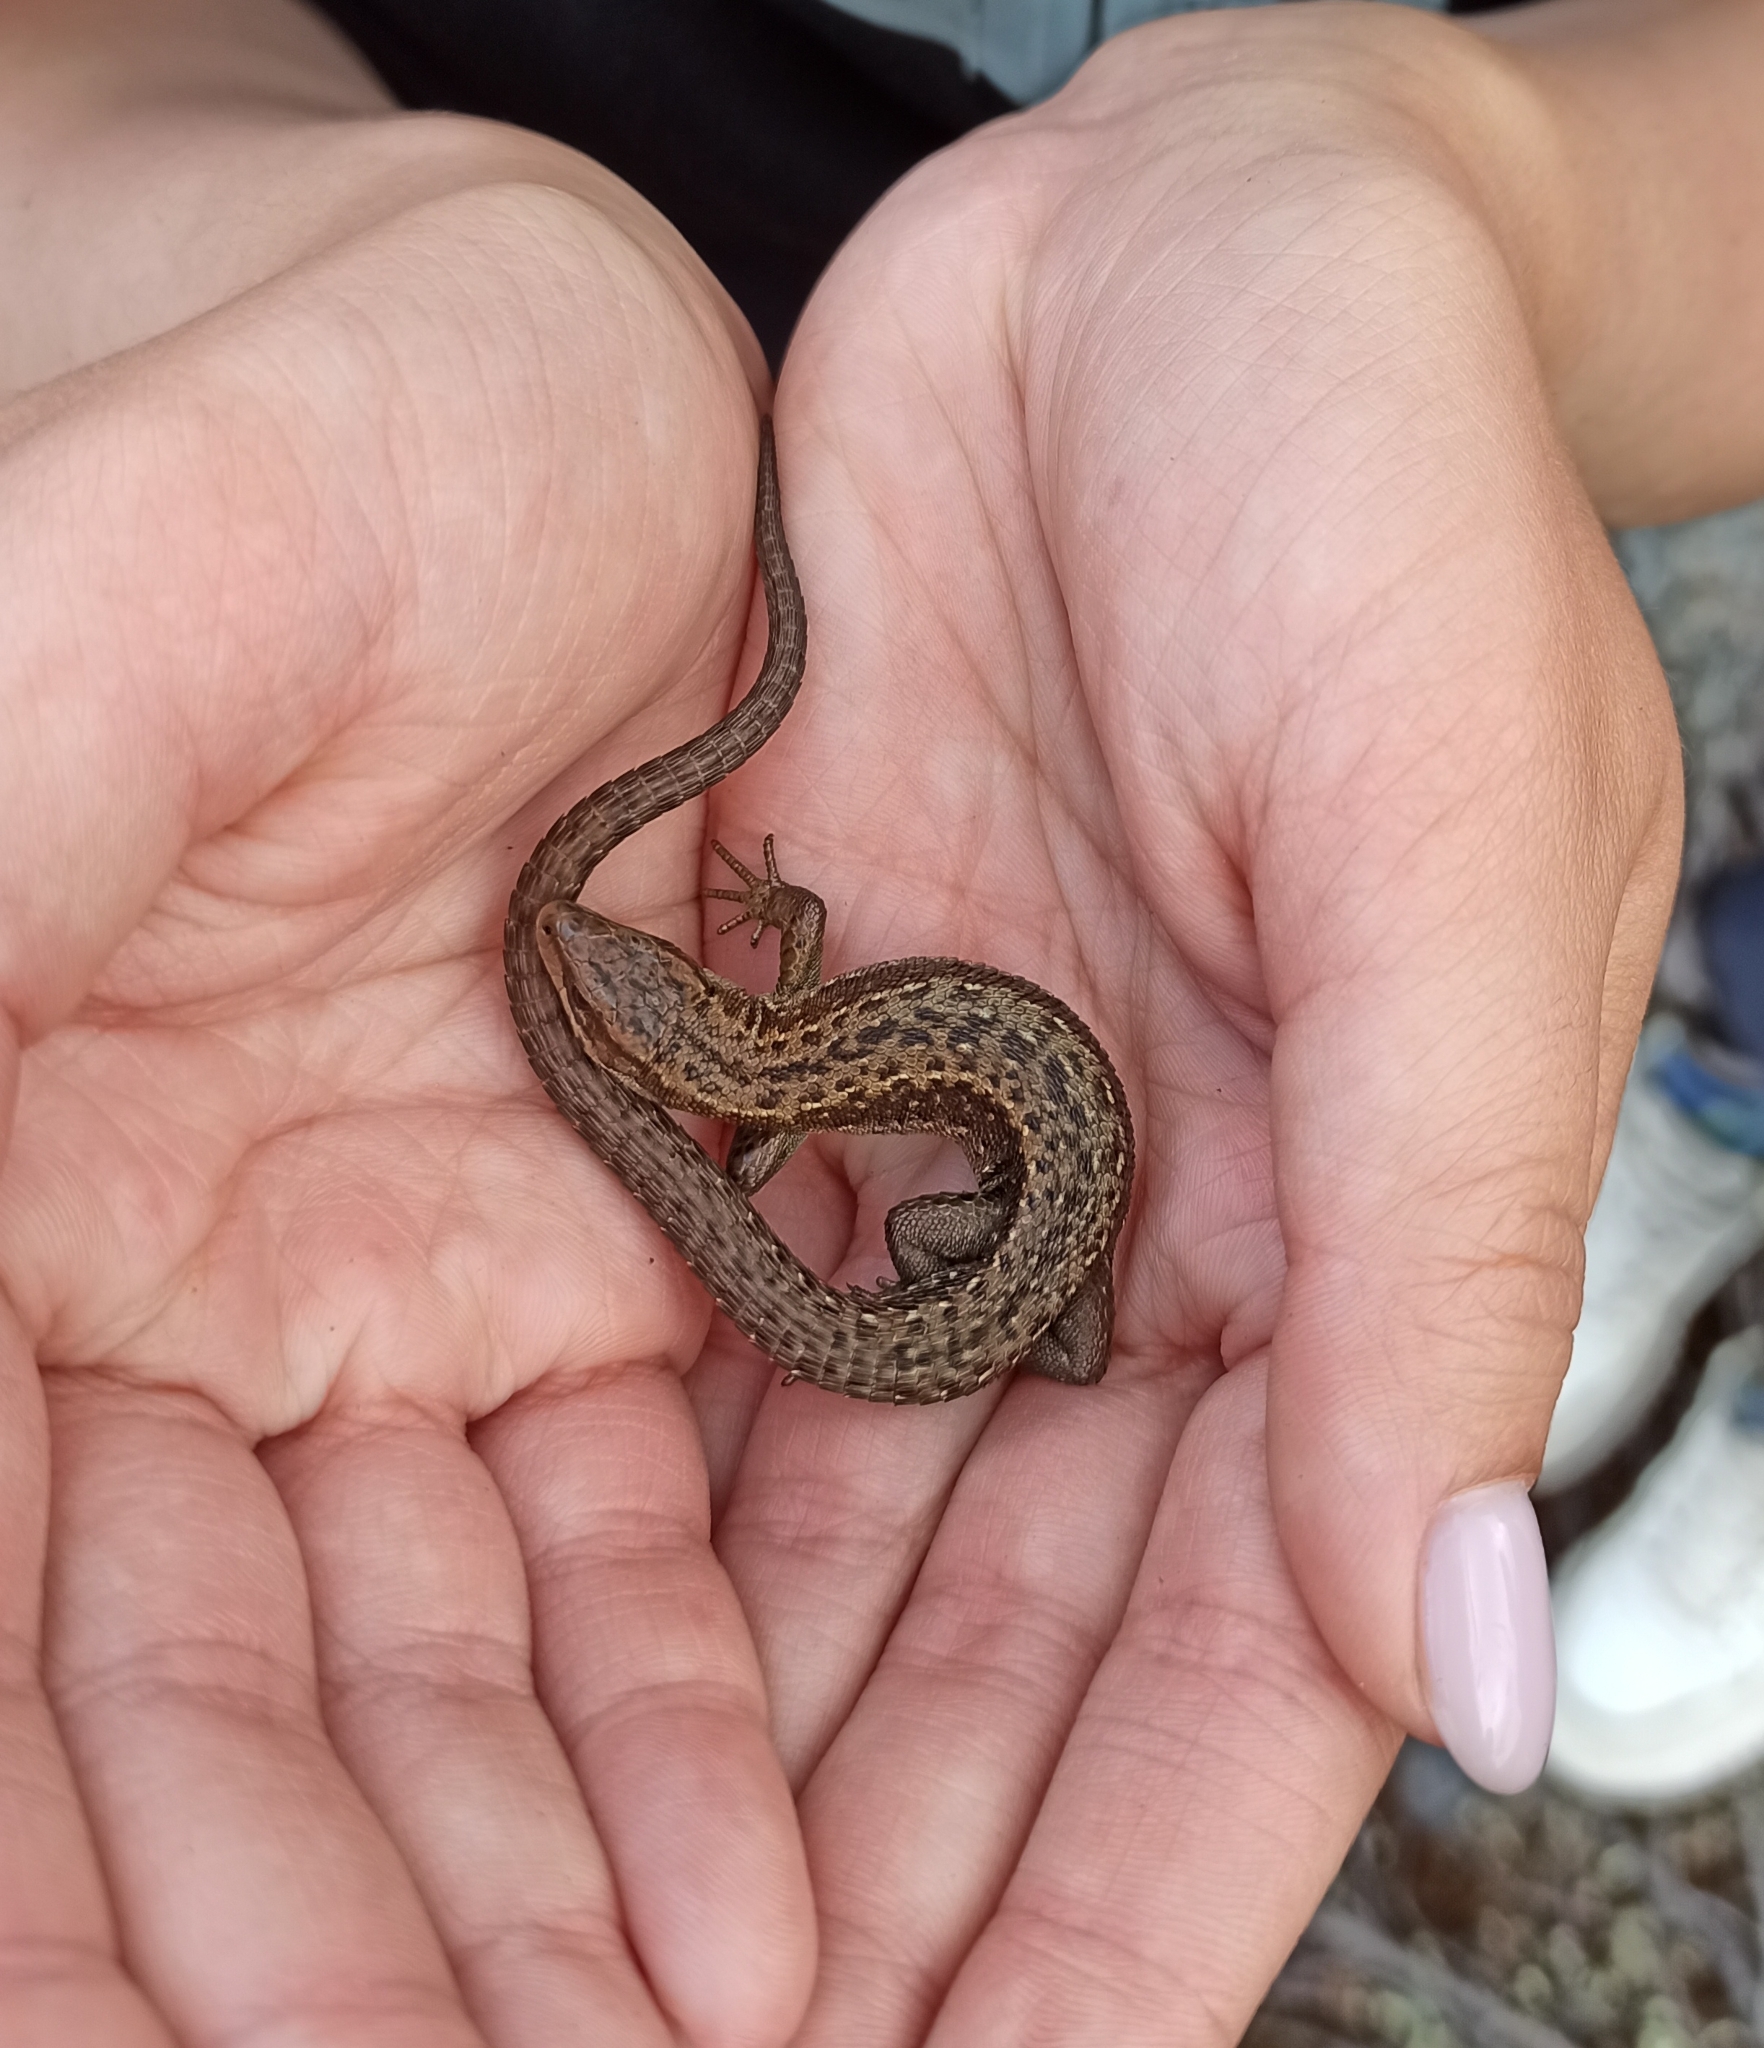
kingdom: Animalia
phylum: Chordata
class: Squamata
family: Lacertidae
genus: Zootoca
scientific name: Zootoca vivipara
